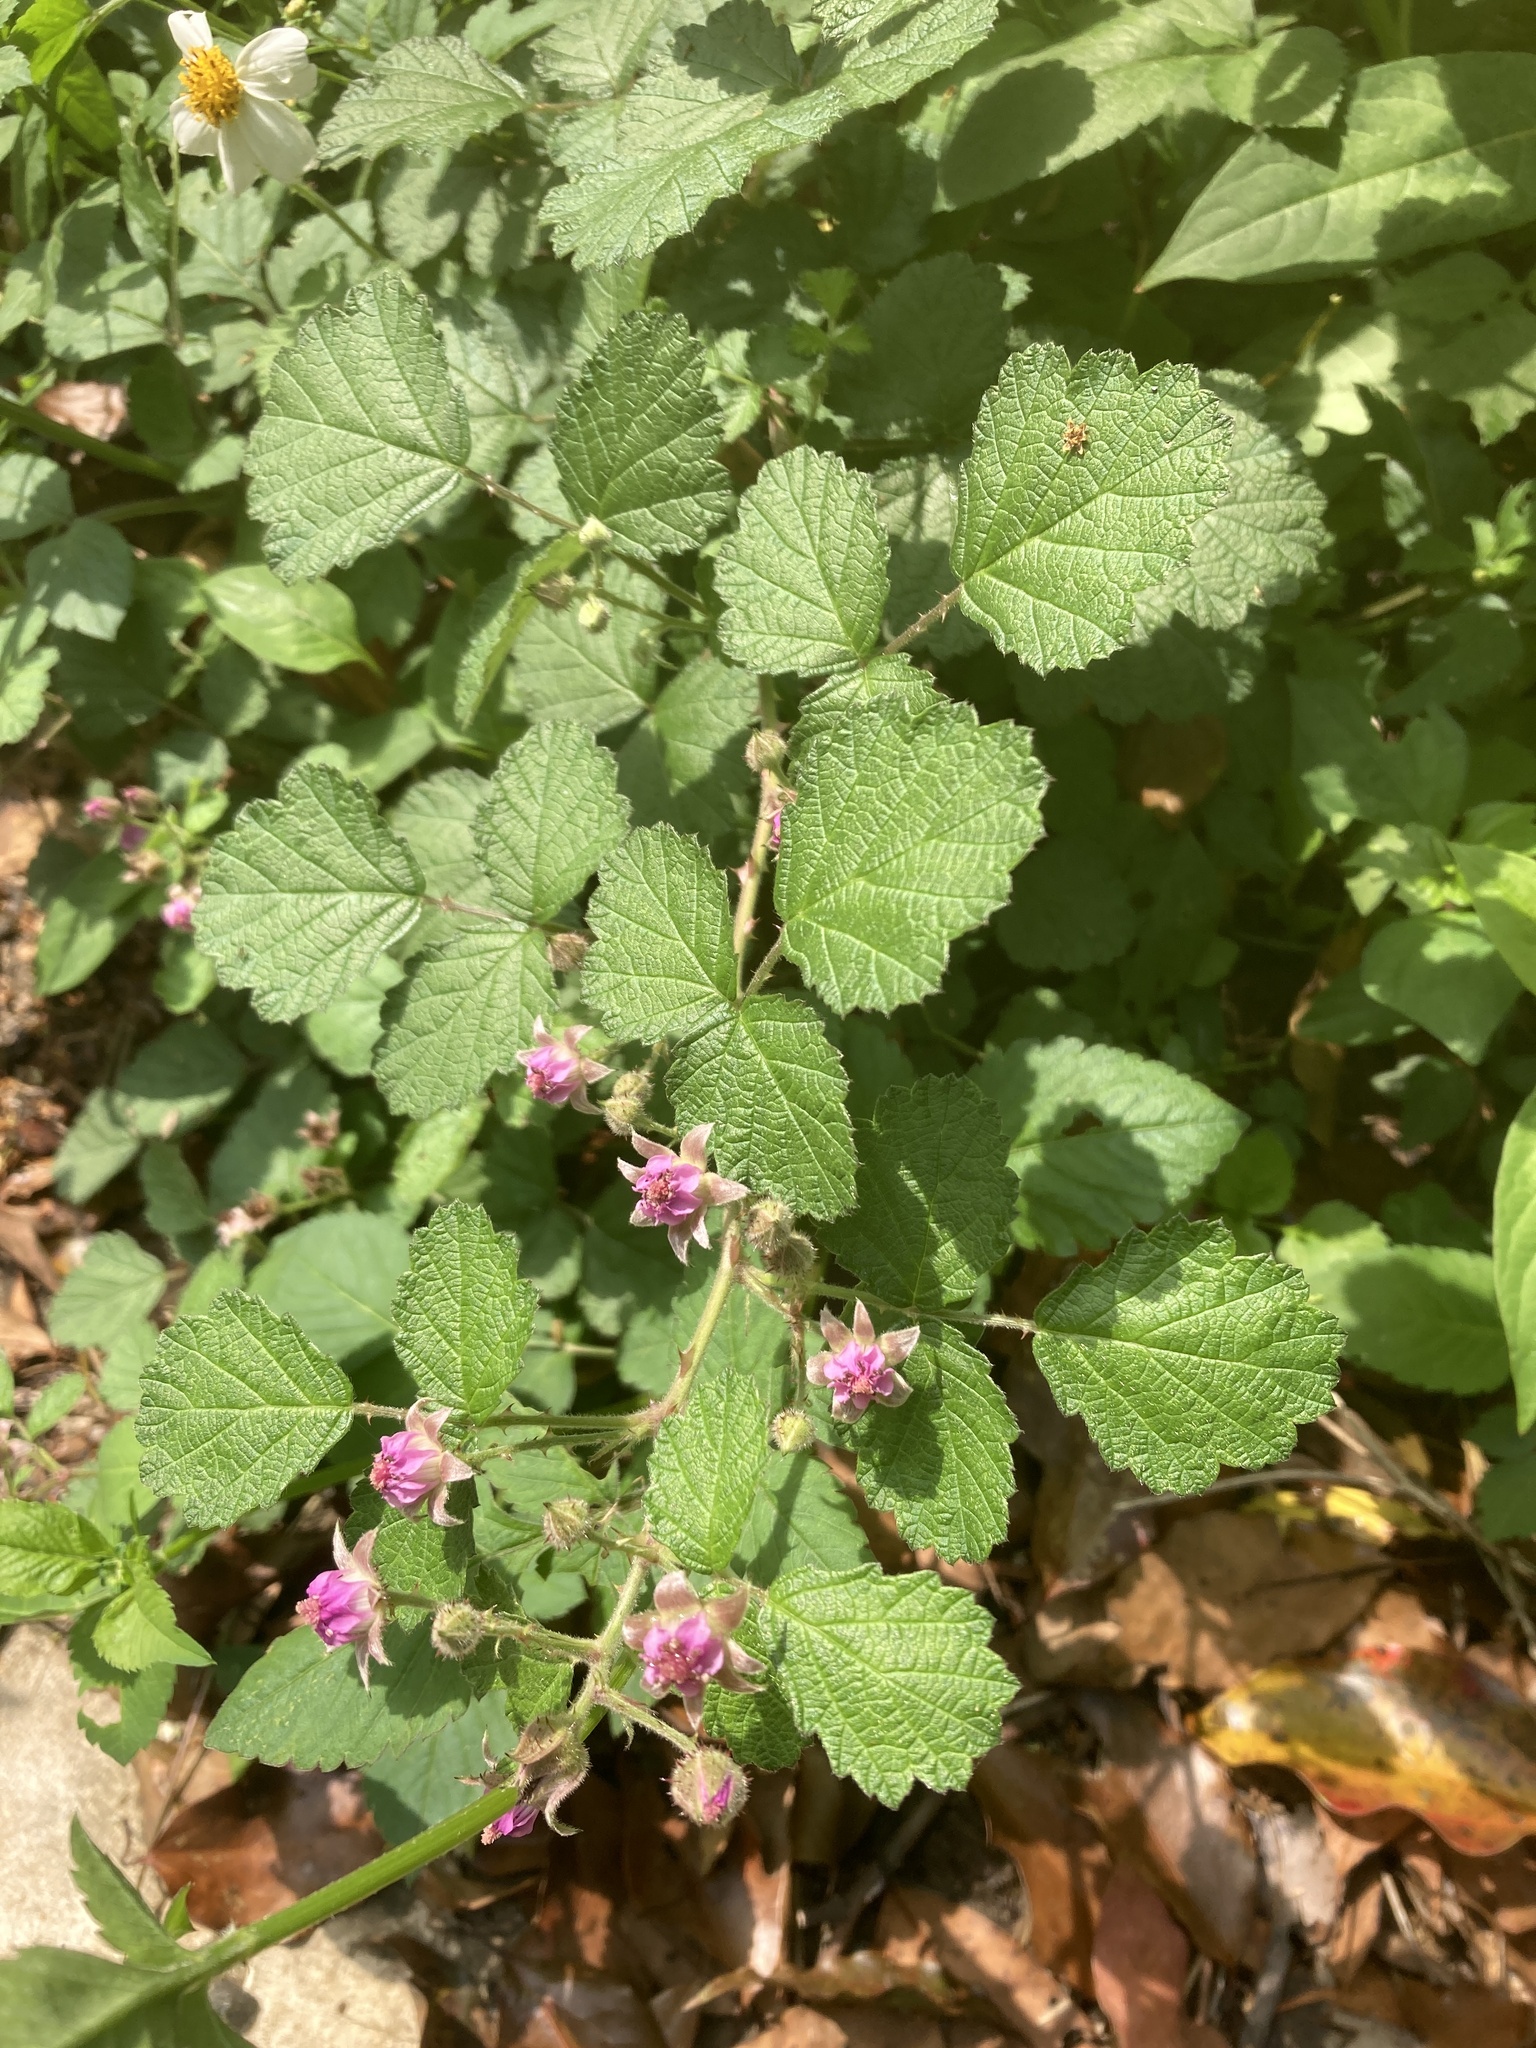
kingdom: Plantae
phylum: Tracheophyta
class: Magnoliopsida
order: Rosales
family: Rosaceae
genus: Rubus
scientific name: Rubus parvifolius
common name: Threeleaf blackberry
